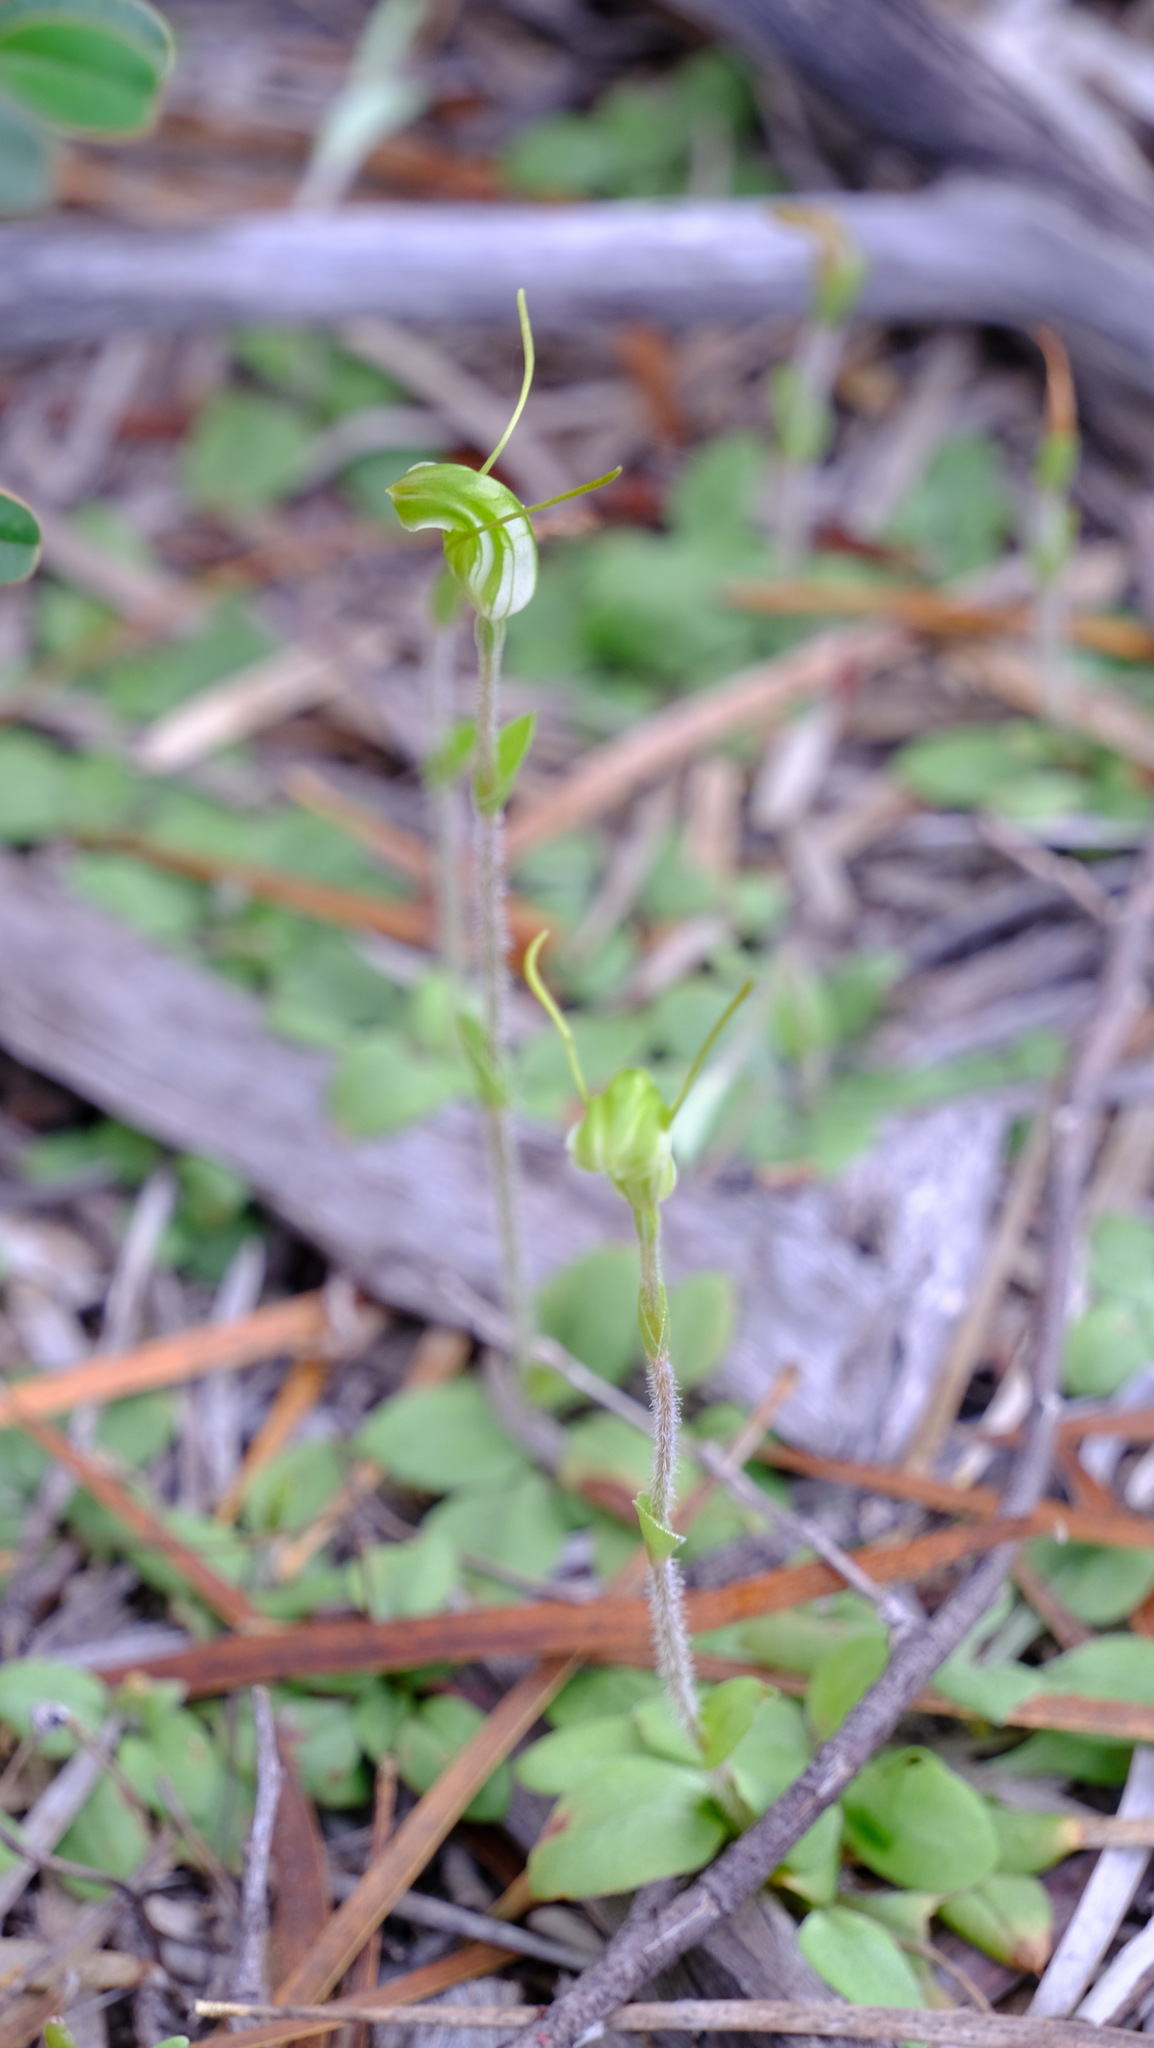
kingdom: Plantae
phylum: Tracheophyta
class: Liliopsida
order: Asparagales
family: Orchidaceae
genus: Pterostylis
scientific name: Pterostylis setulosa
